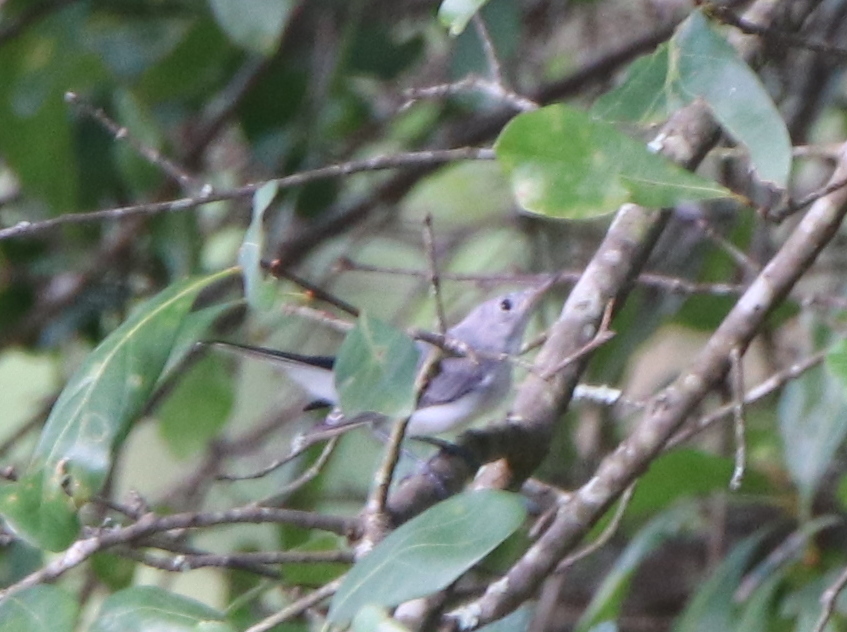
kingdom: Animalia
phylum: Chordata
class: Aves
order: Passeriformes
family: Polioptilidae
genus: Polioptila
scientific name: Polioptila caerulea
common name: Blue-gray gnatcatcher
